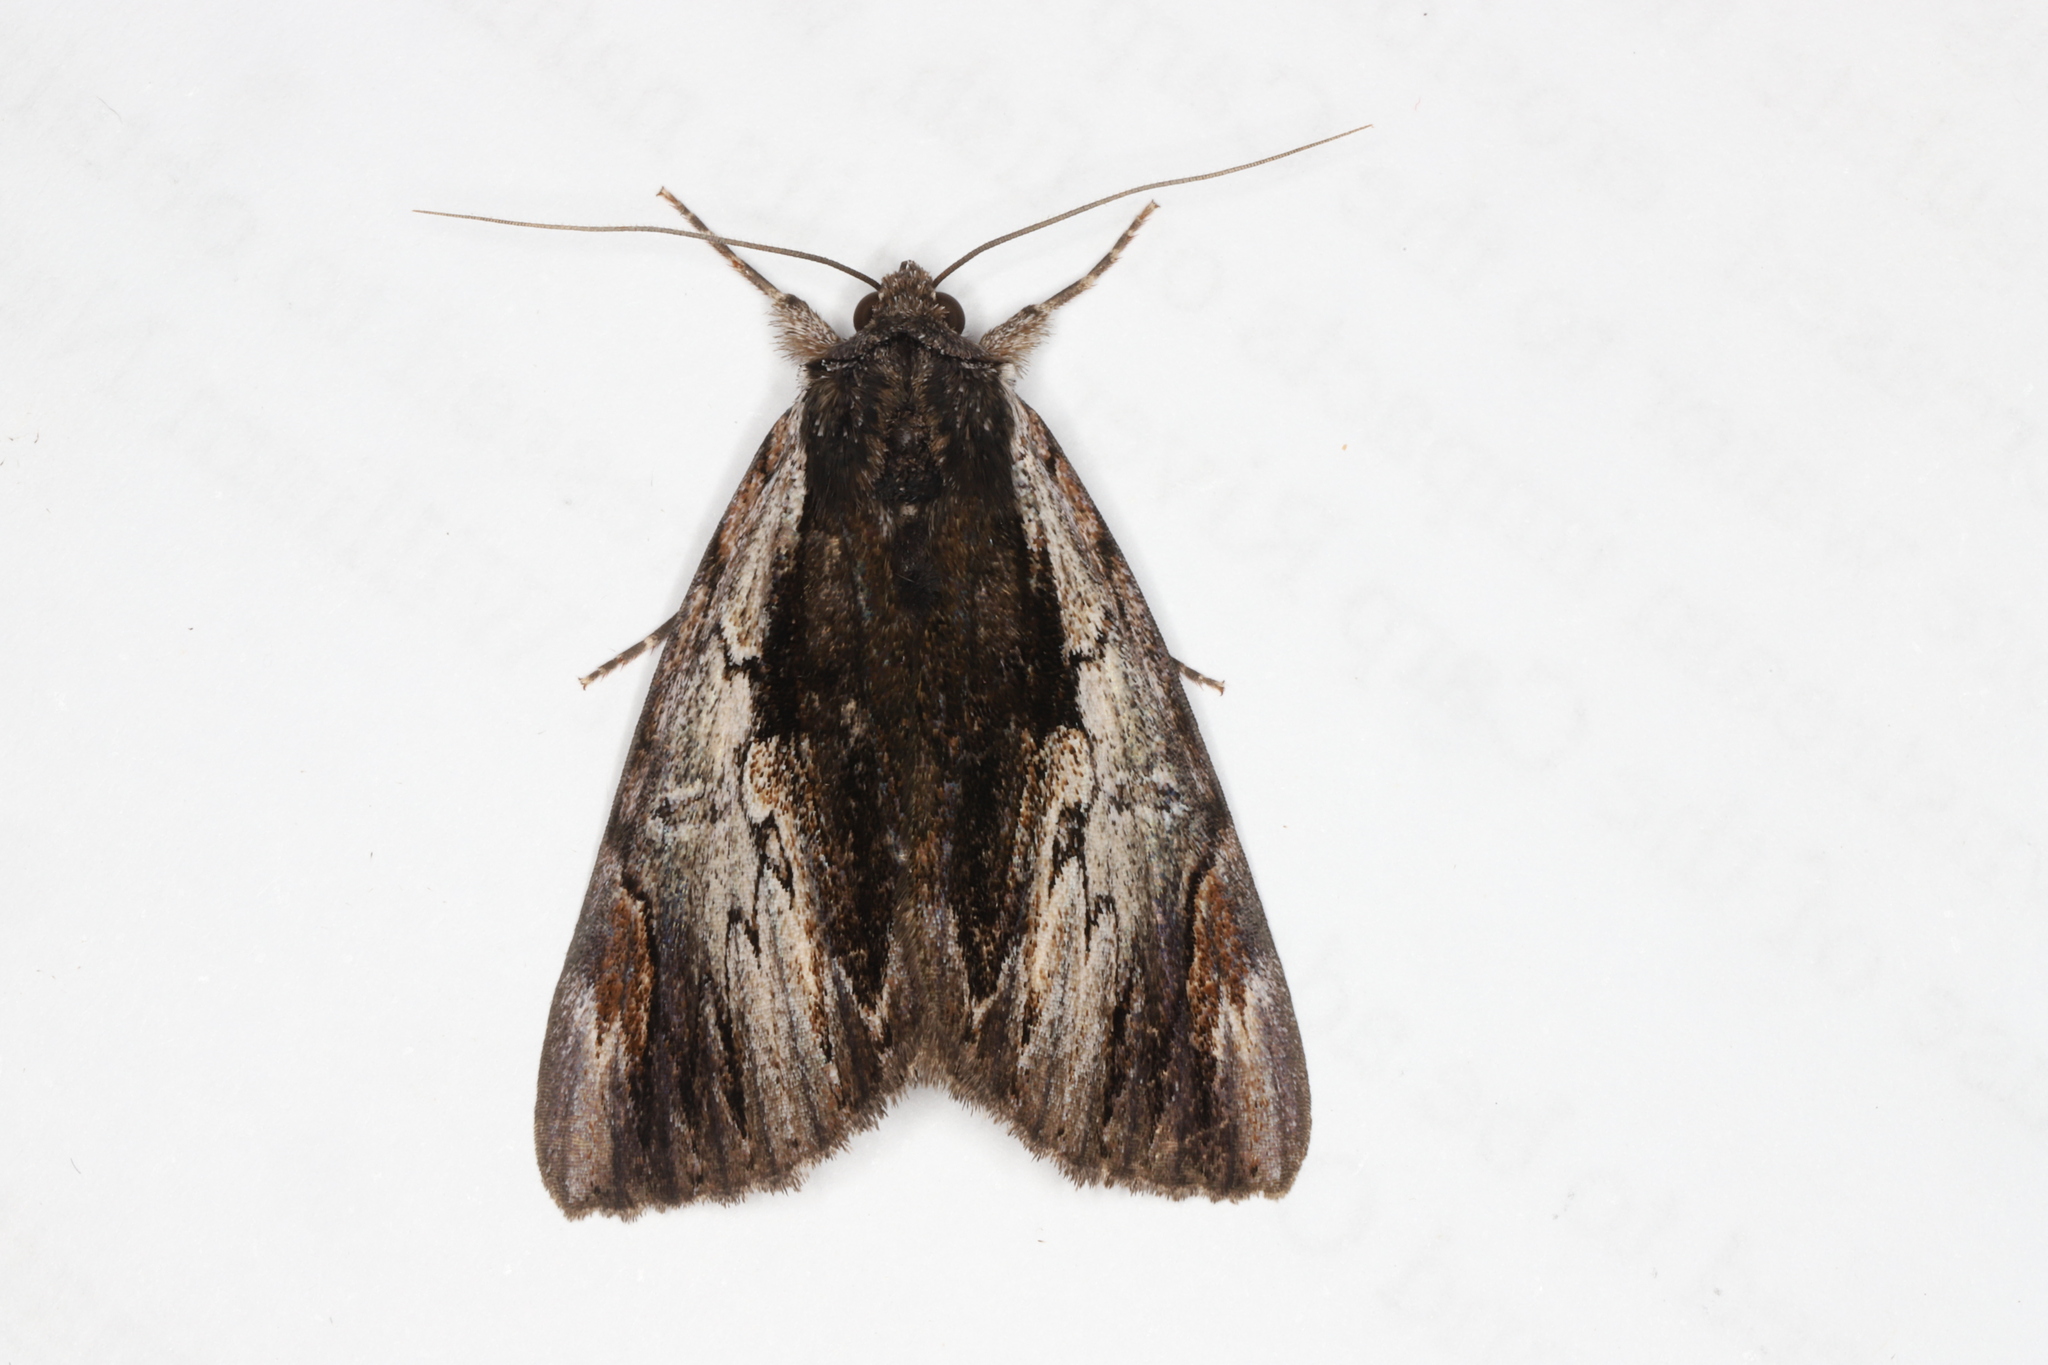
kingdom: Animalia
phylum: Arthropoda
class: Insecta
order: Lepidoptera
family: Erebidae
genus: Catocala
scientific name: Catocala ultronia
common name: Ultronia underwing
